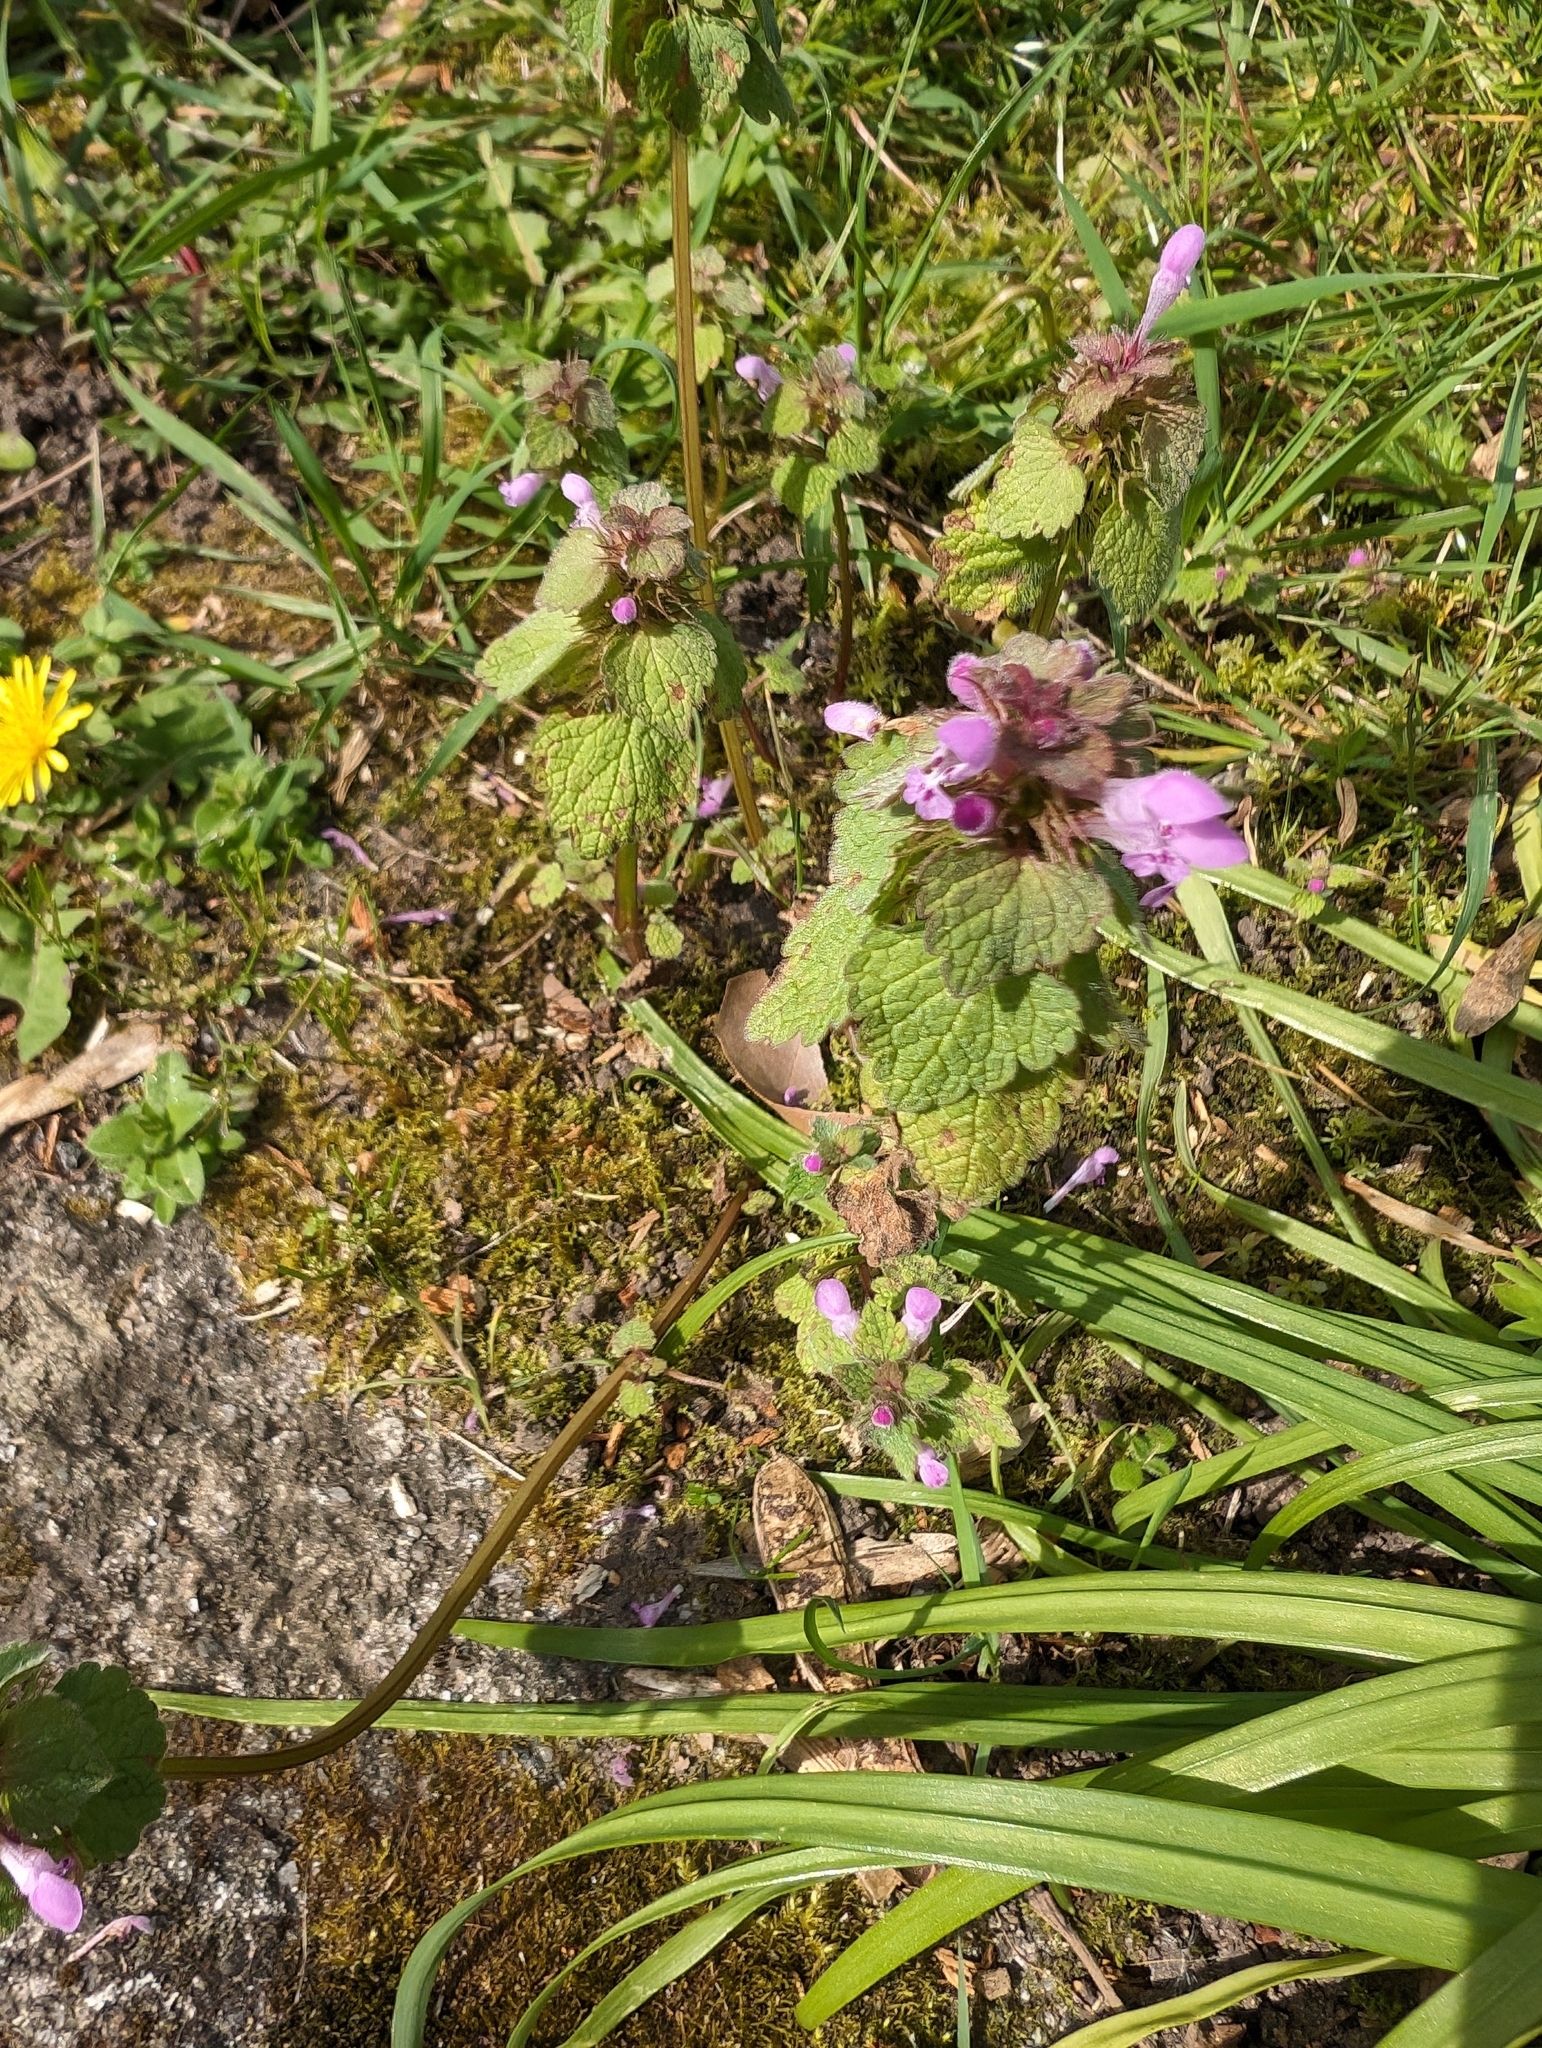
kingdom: Plantae
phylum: Tracheophyta
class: Magnoliopsida
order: Lamiales
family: Lamiaceae
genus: Lamium
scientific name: Lamium purpureum
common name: Red dead-nettle
